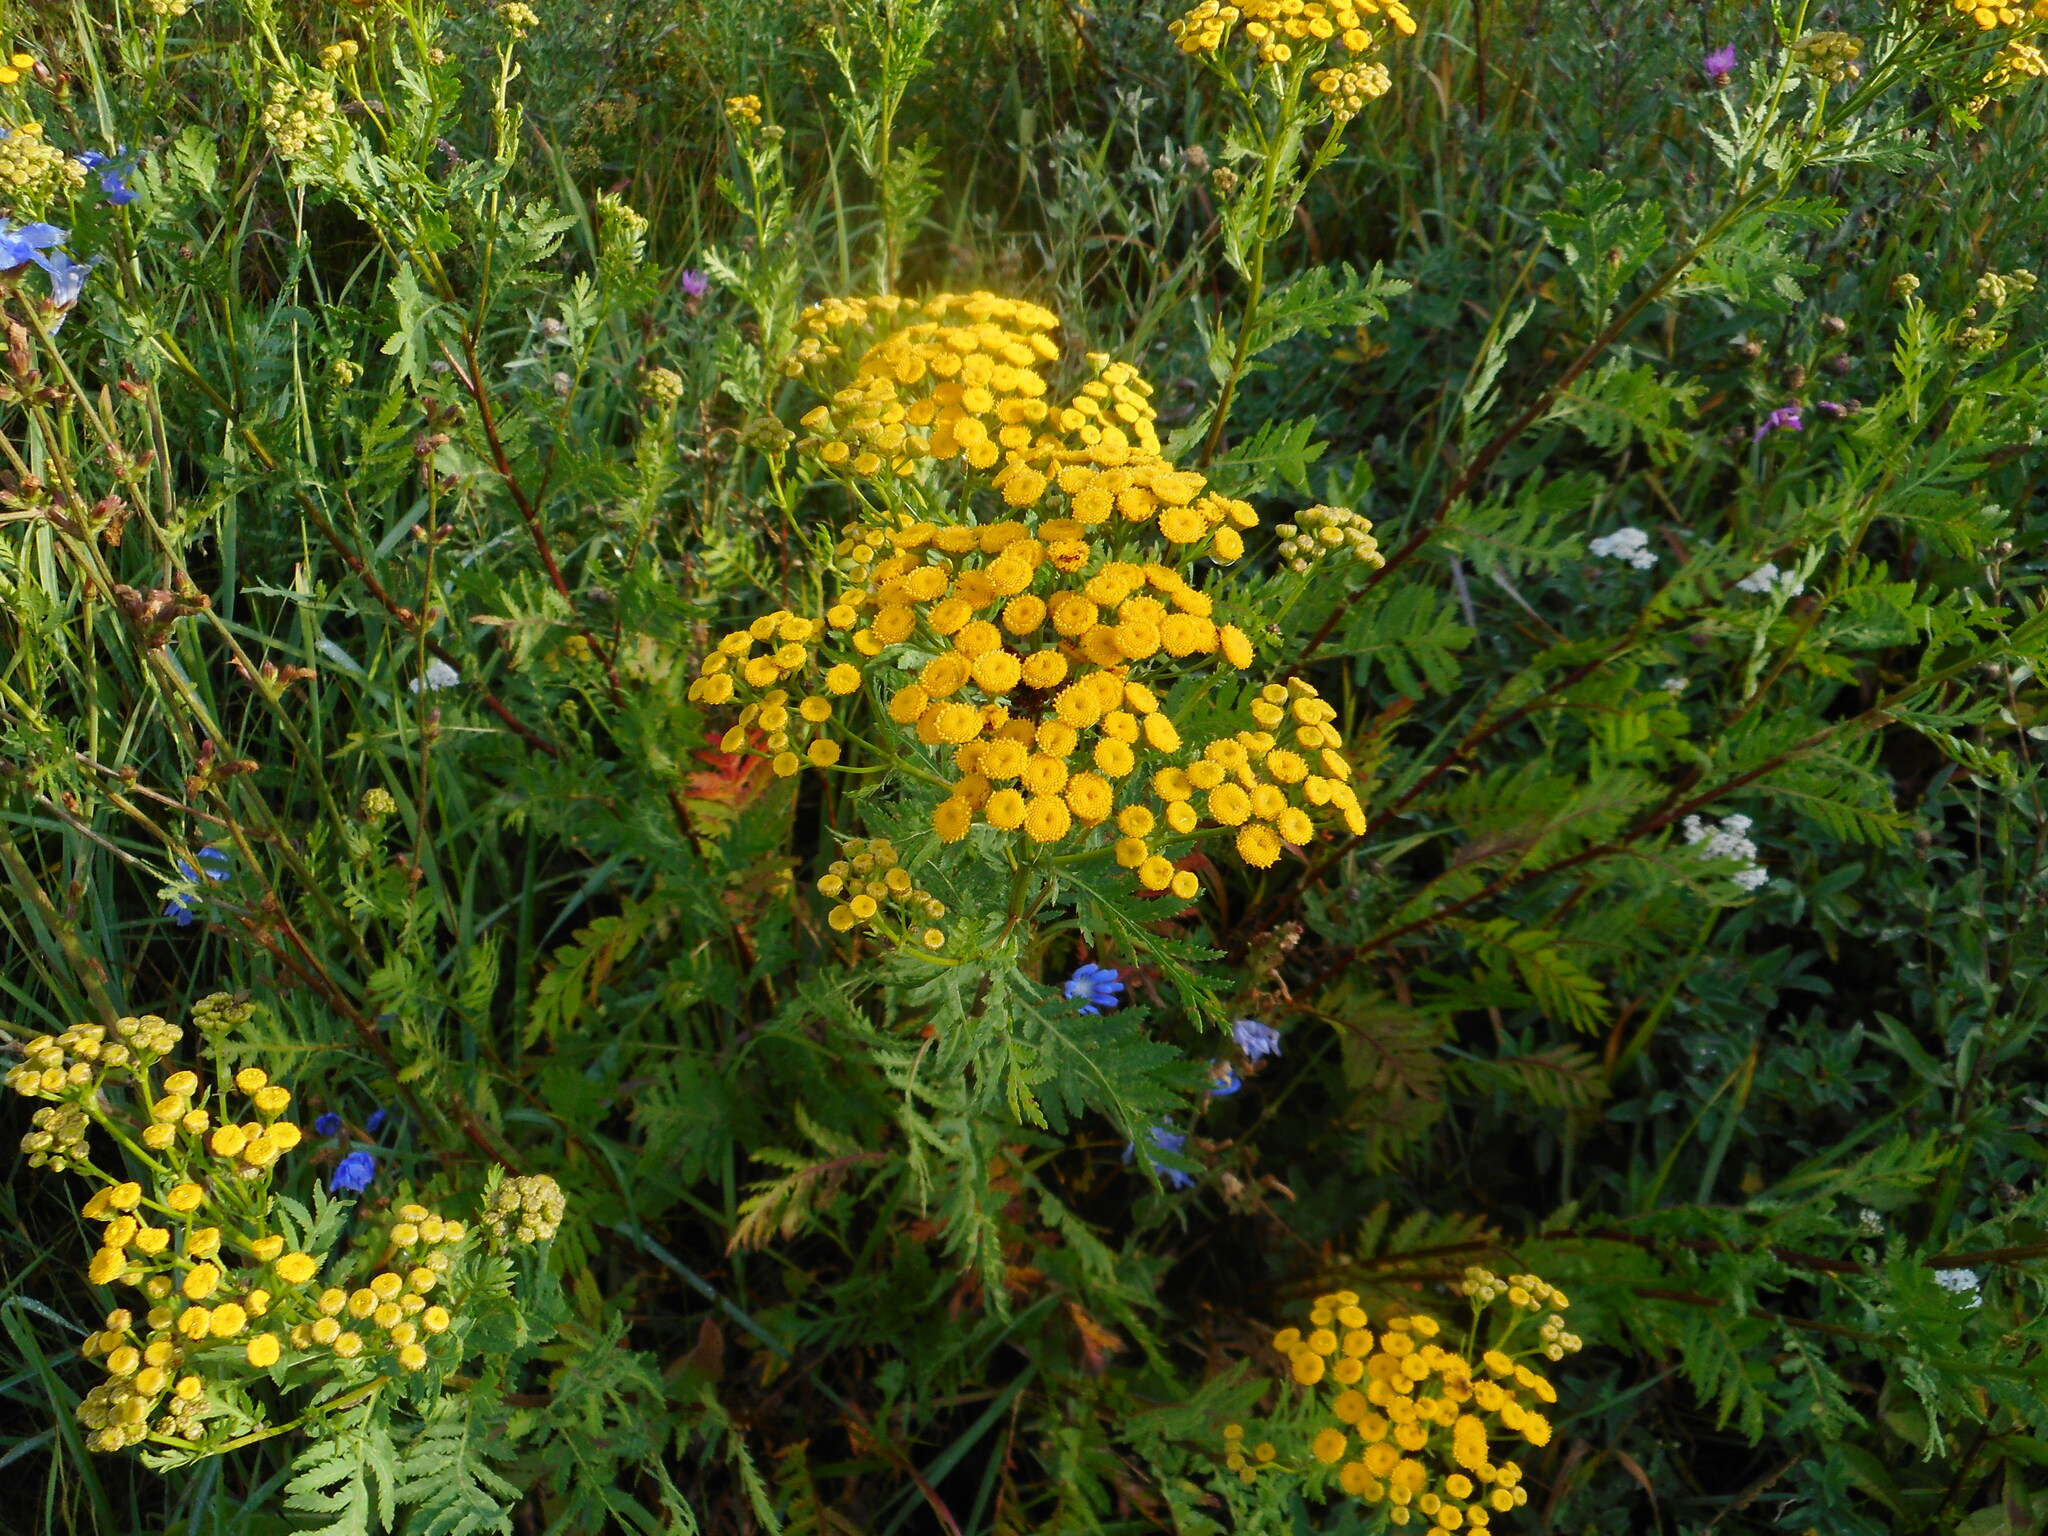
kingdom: Plantae
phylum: Tracheophyta
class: Magnoliopsida
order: Asterales
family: Asteraceae
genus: Tanacetum
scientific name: Tanacetum vulgare
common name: Common tansy
